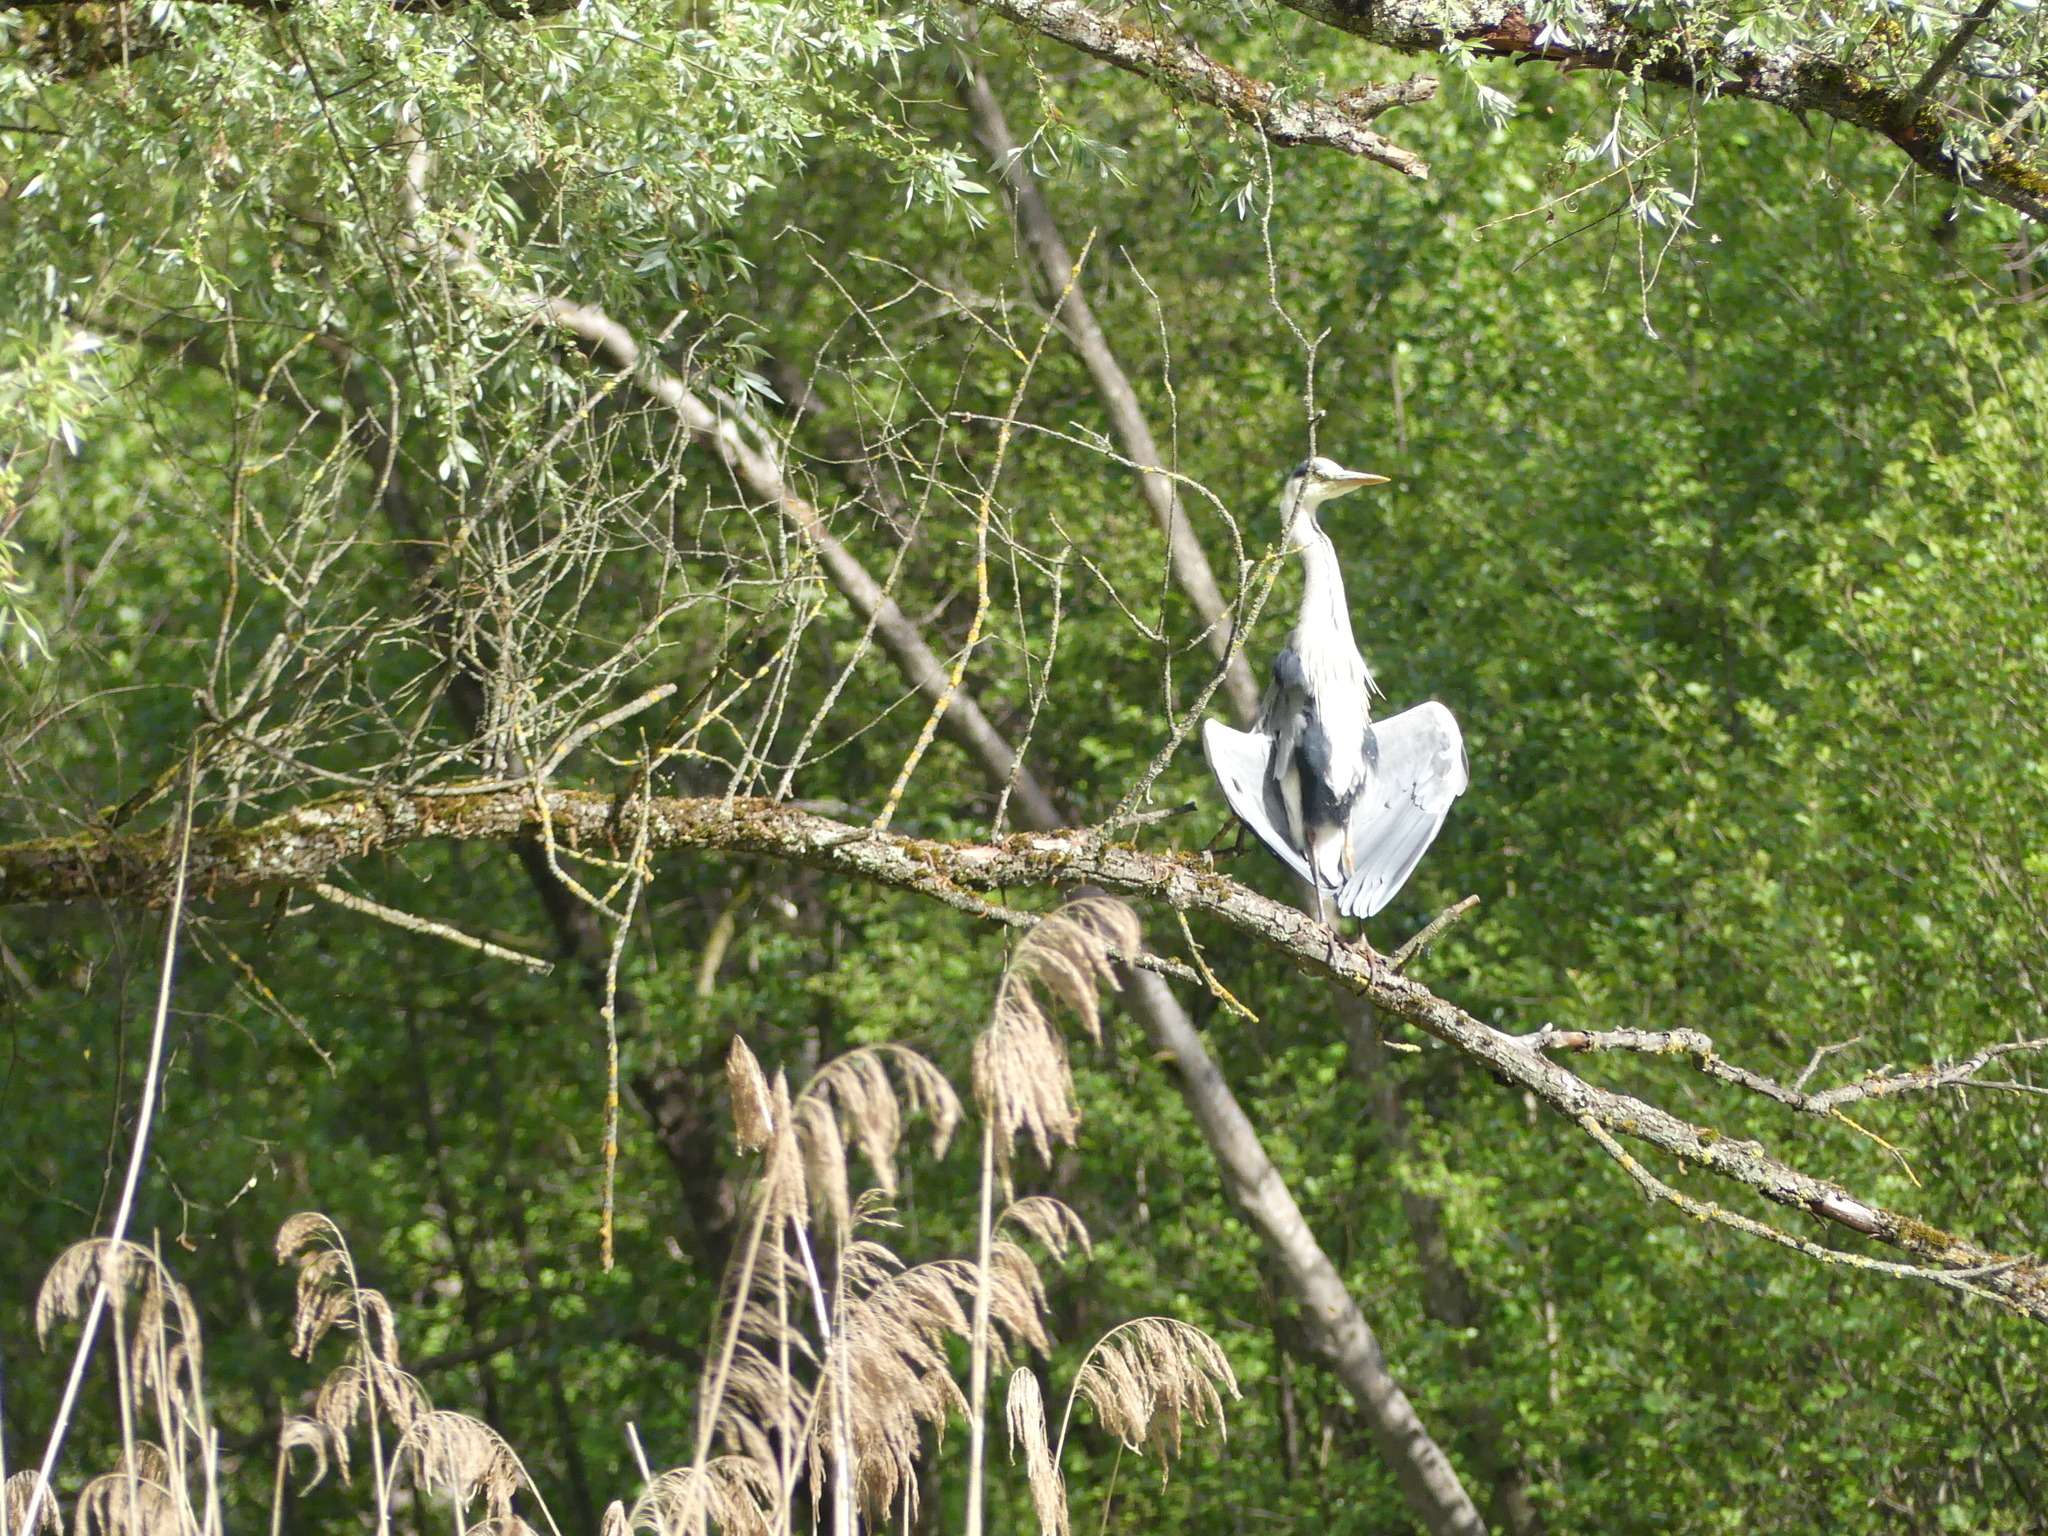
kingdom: Animalia
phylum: Chordata
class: Aves
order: Pelecaniformes
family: Ardeidae
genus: Ardea
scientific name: Ardea cinerea
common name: Grey heron
